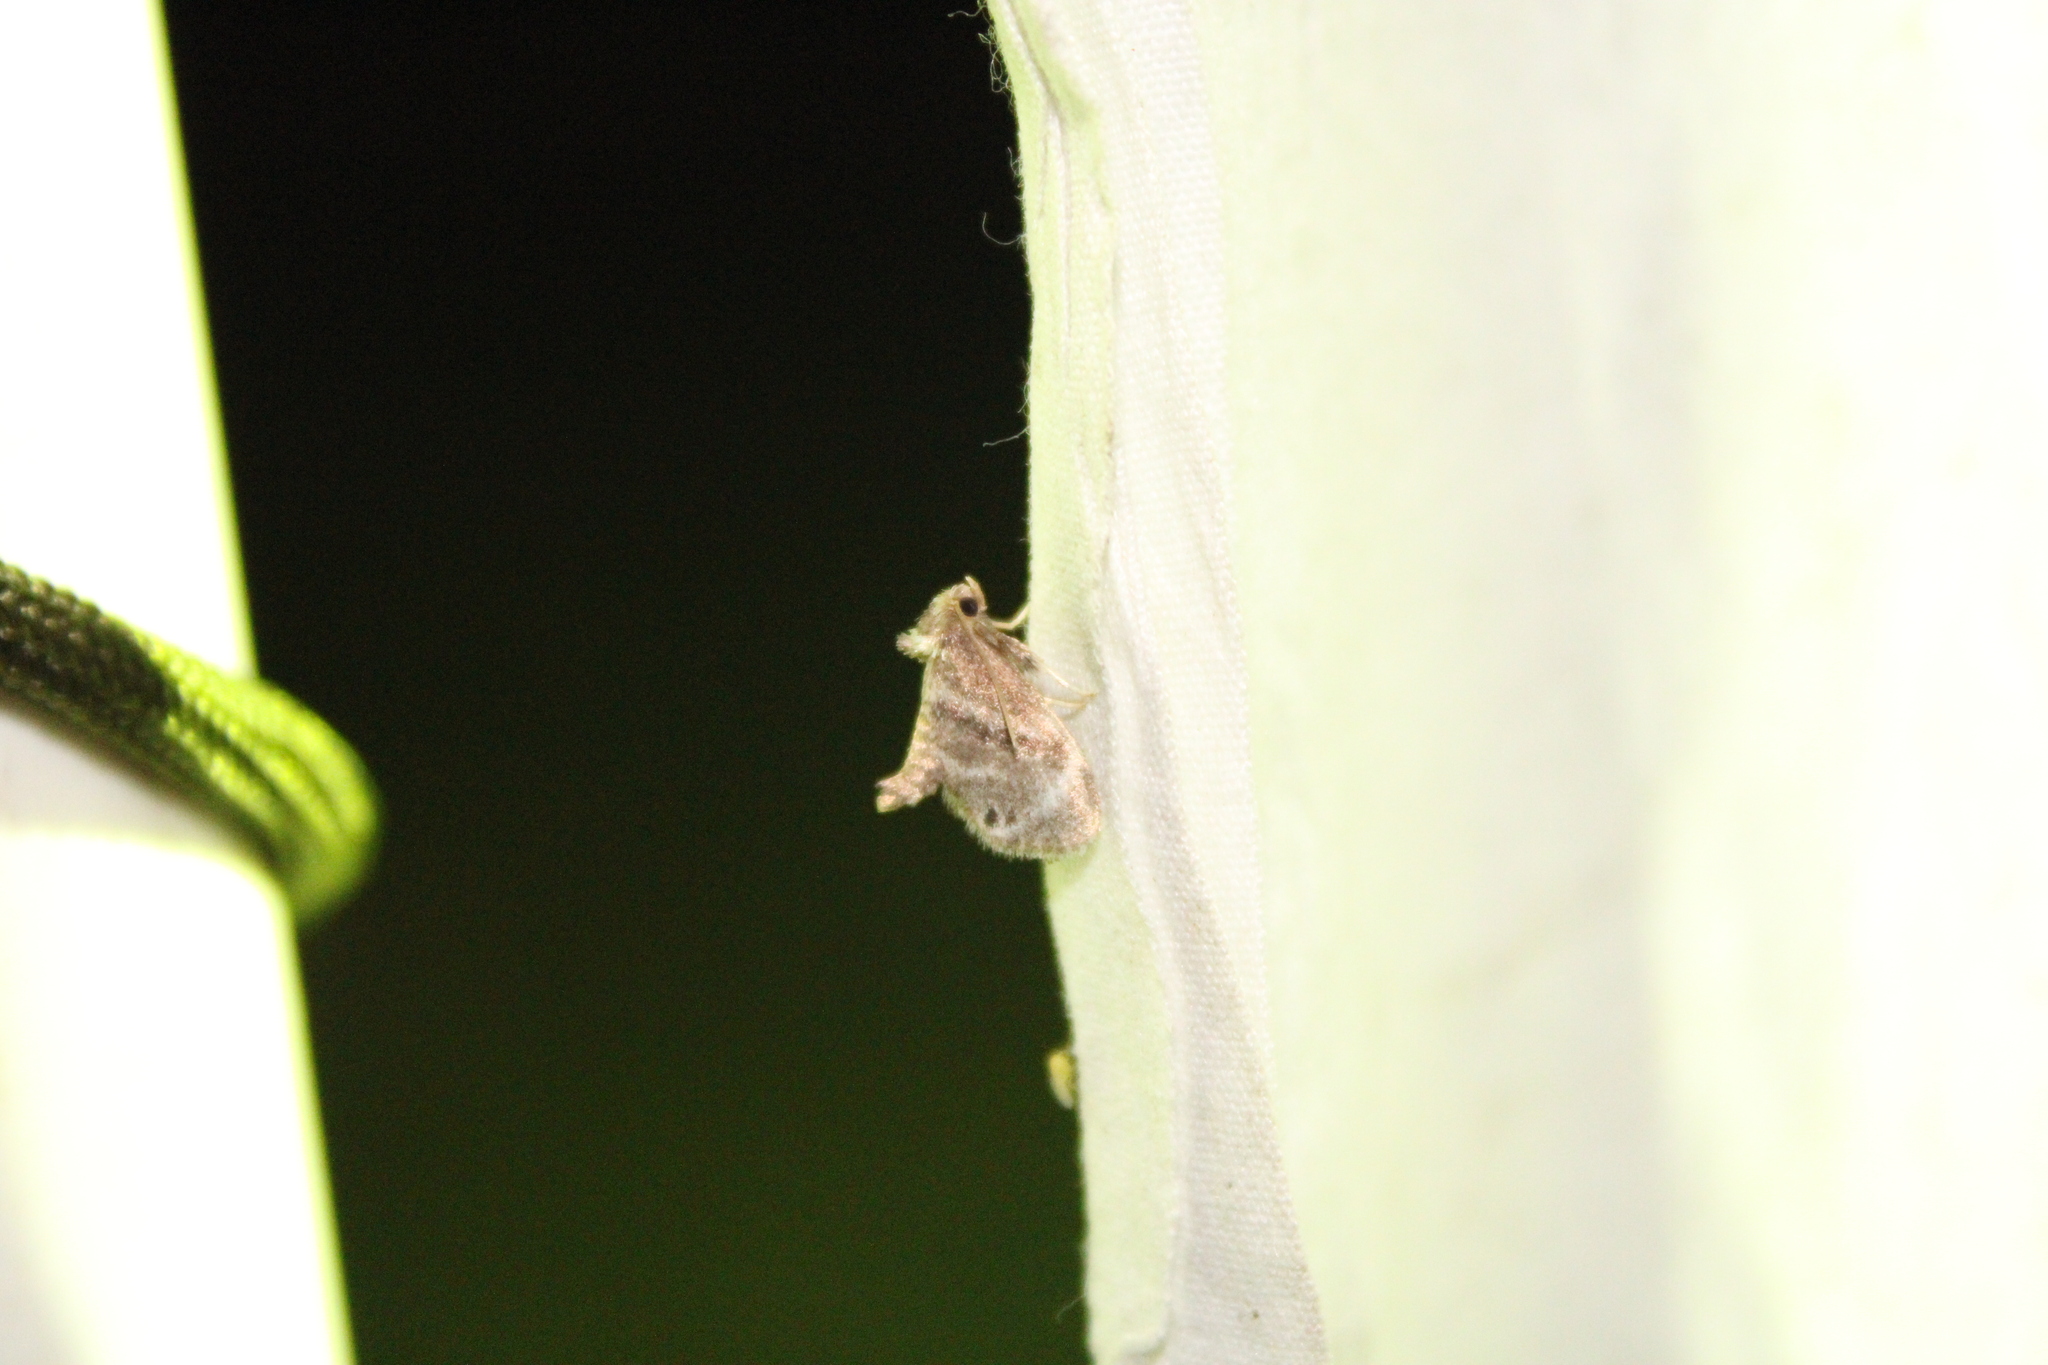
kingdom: Animalia
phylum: Arthropoda
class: Insecta
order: Lepidoptera
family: Limacodidae
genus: Packardia
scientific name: Packardia elegans
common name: Elegant tailed slug moth
